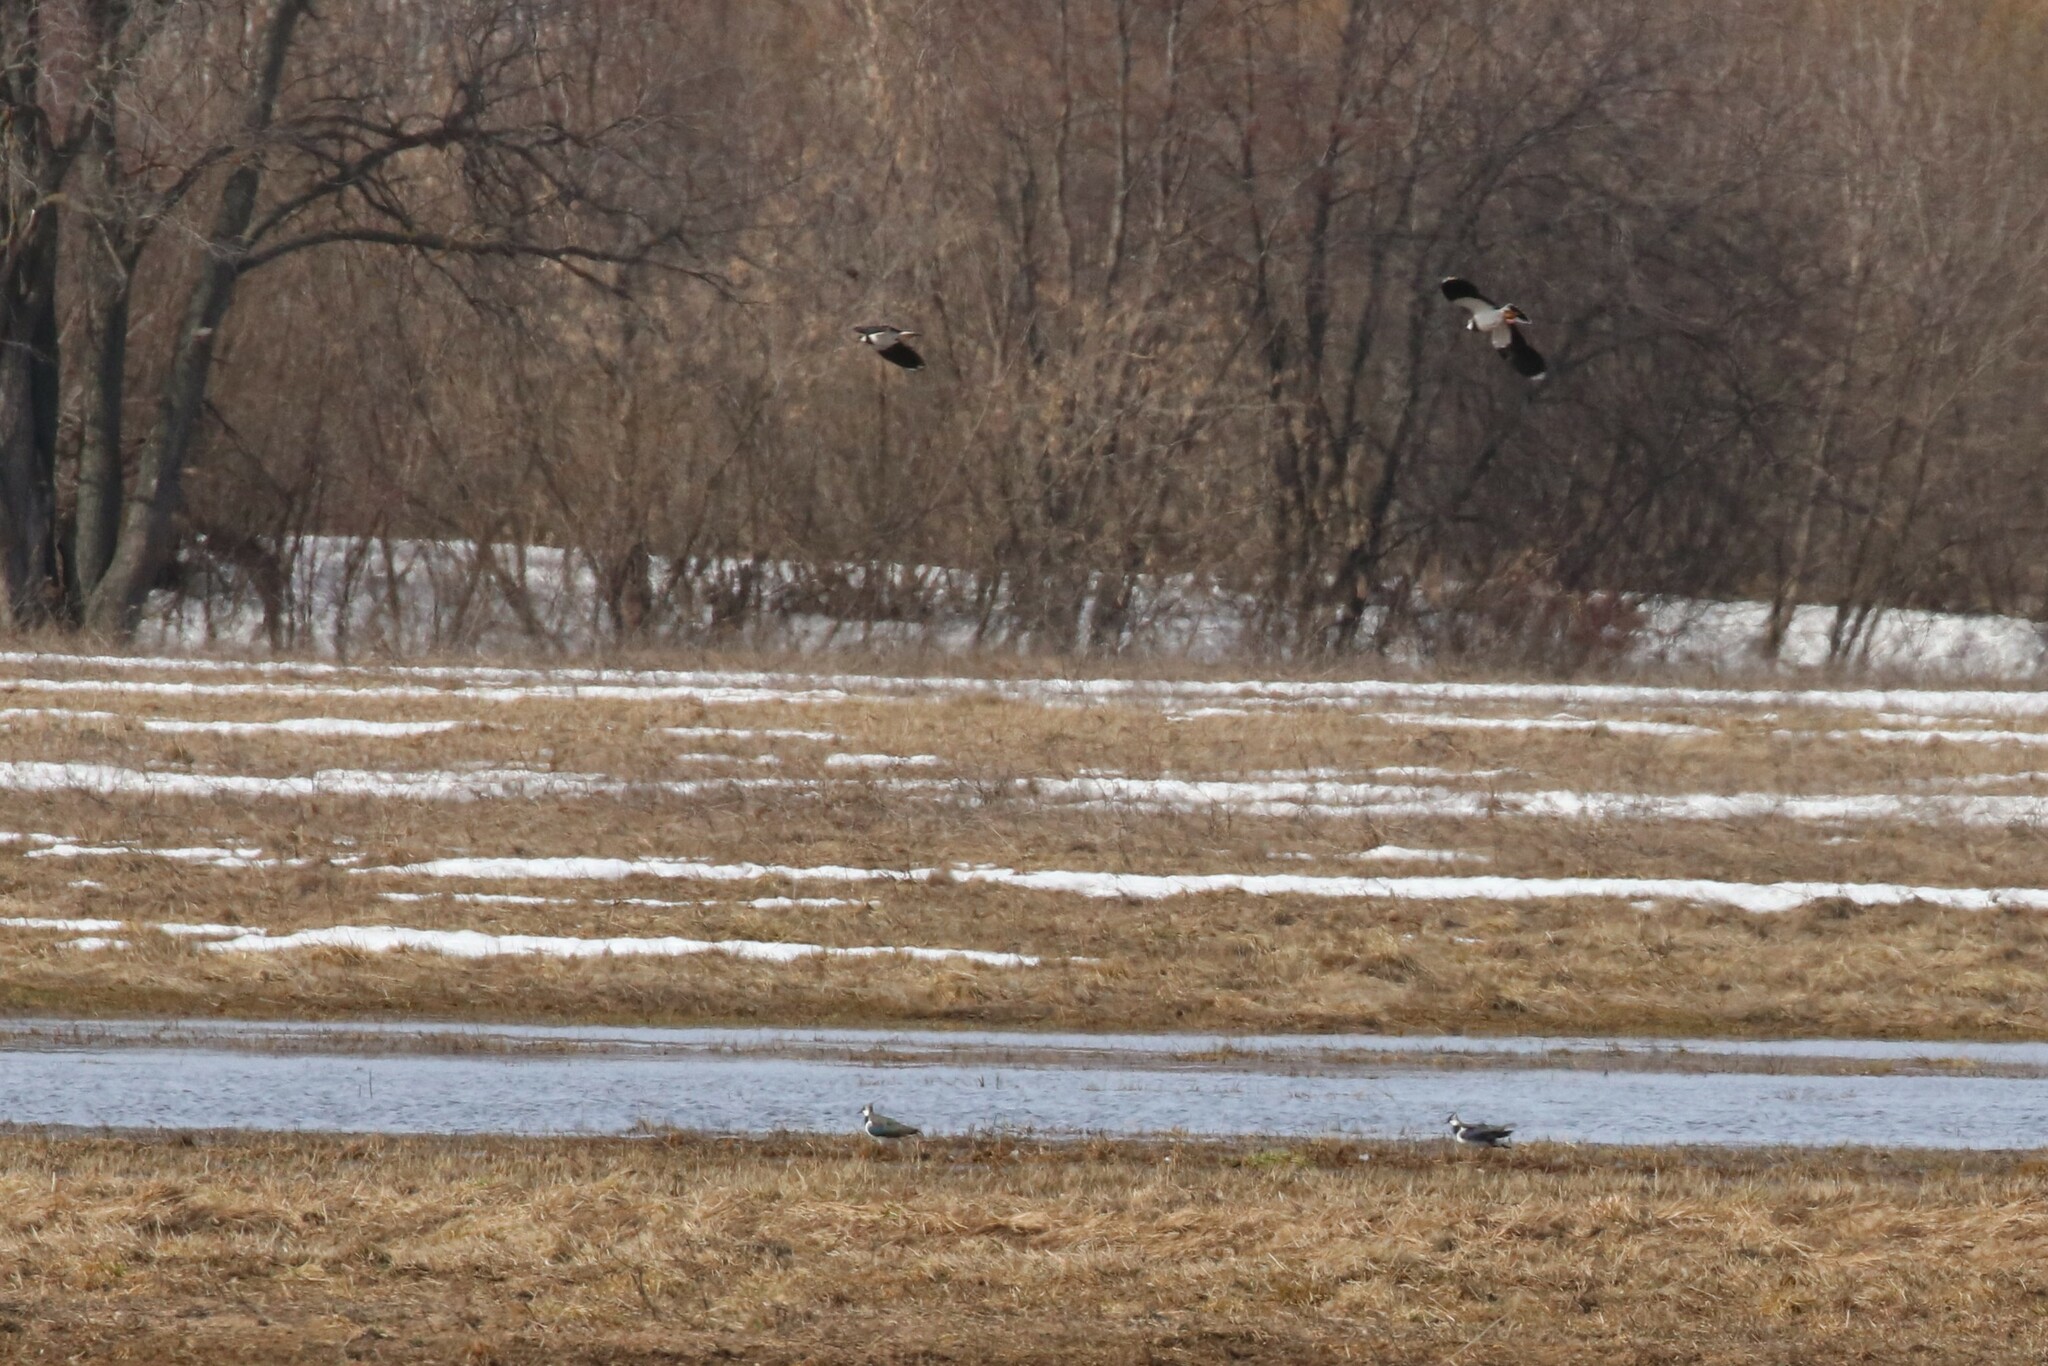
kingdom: Animalia
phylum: Chordata
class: Aves
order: Charadriiformes
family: Charadriidae
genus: Vanellus
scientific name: Vanellus vanellus
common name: Northern lapwing
